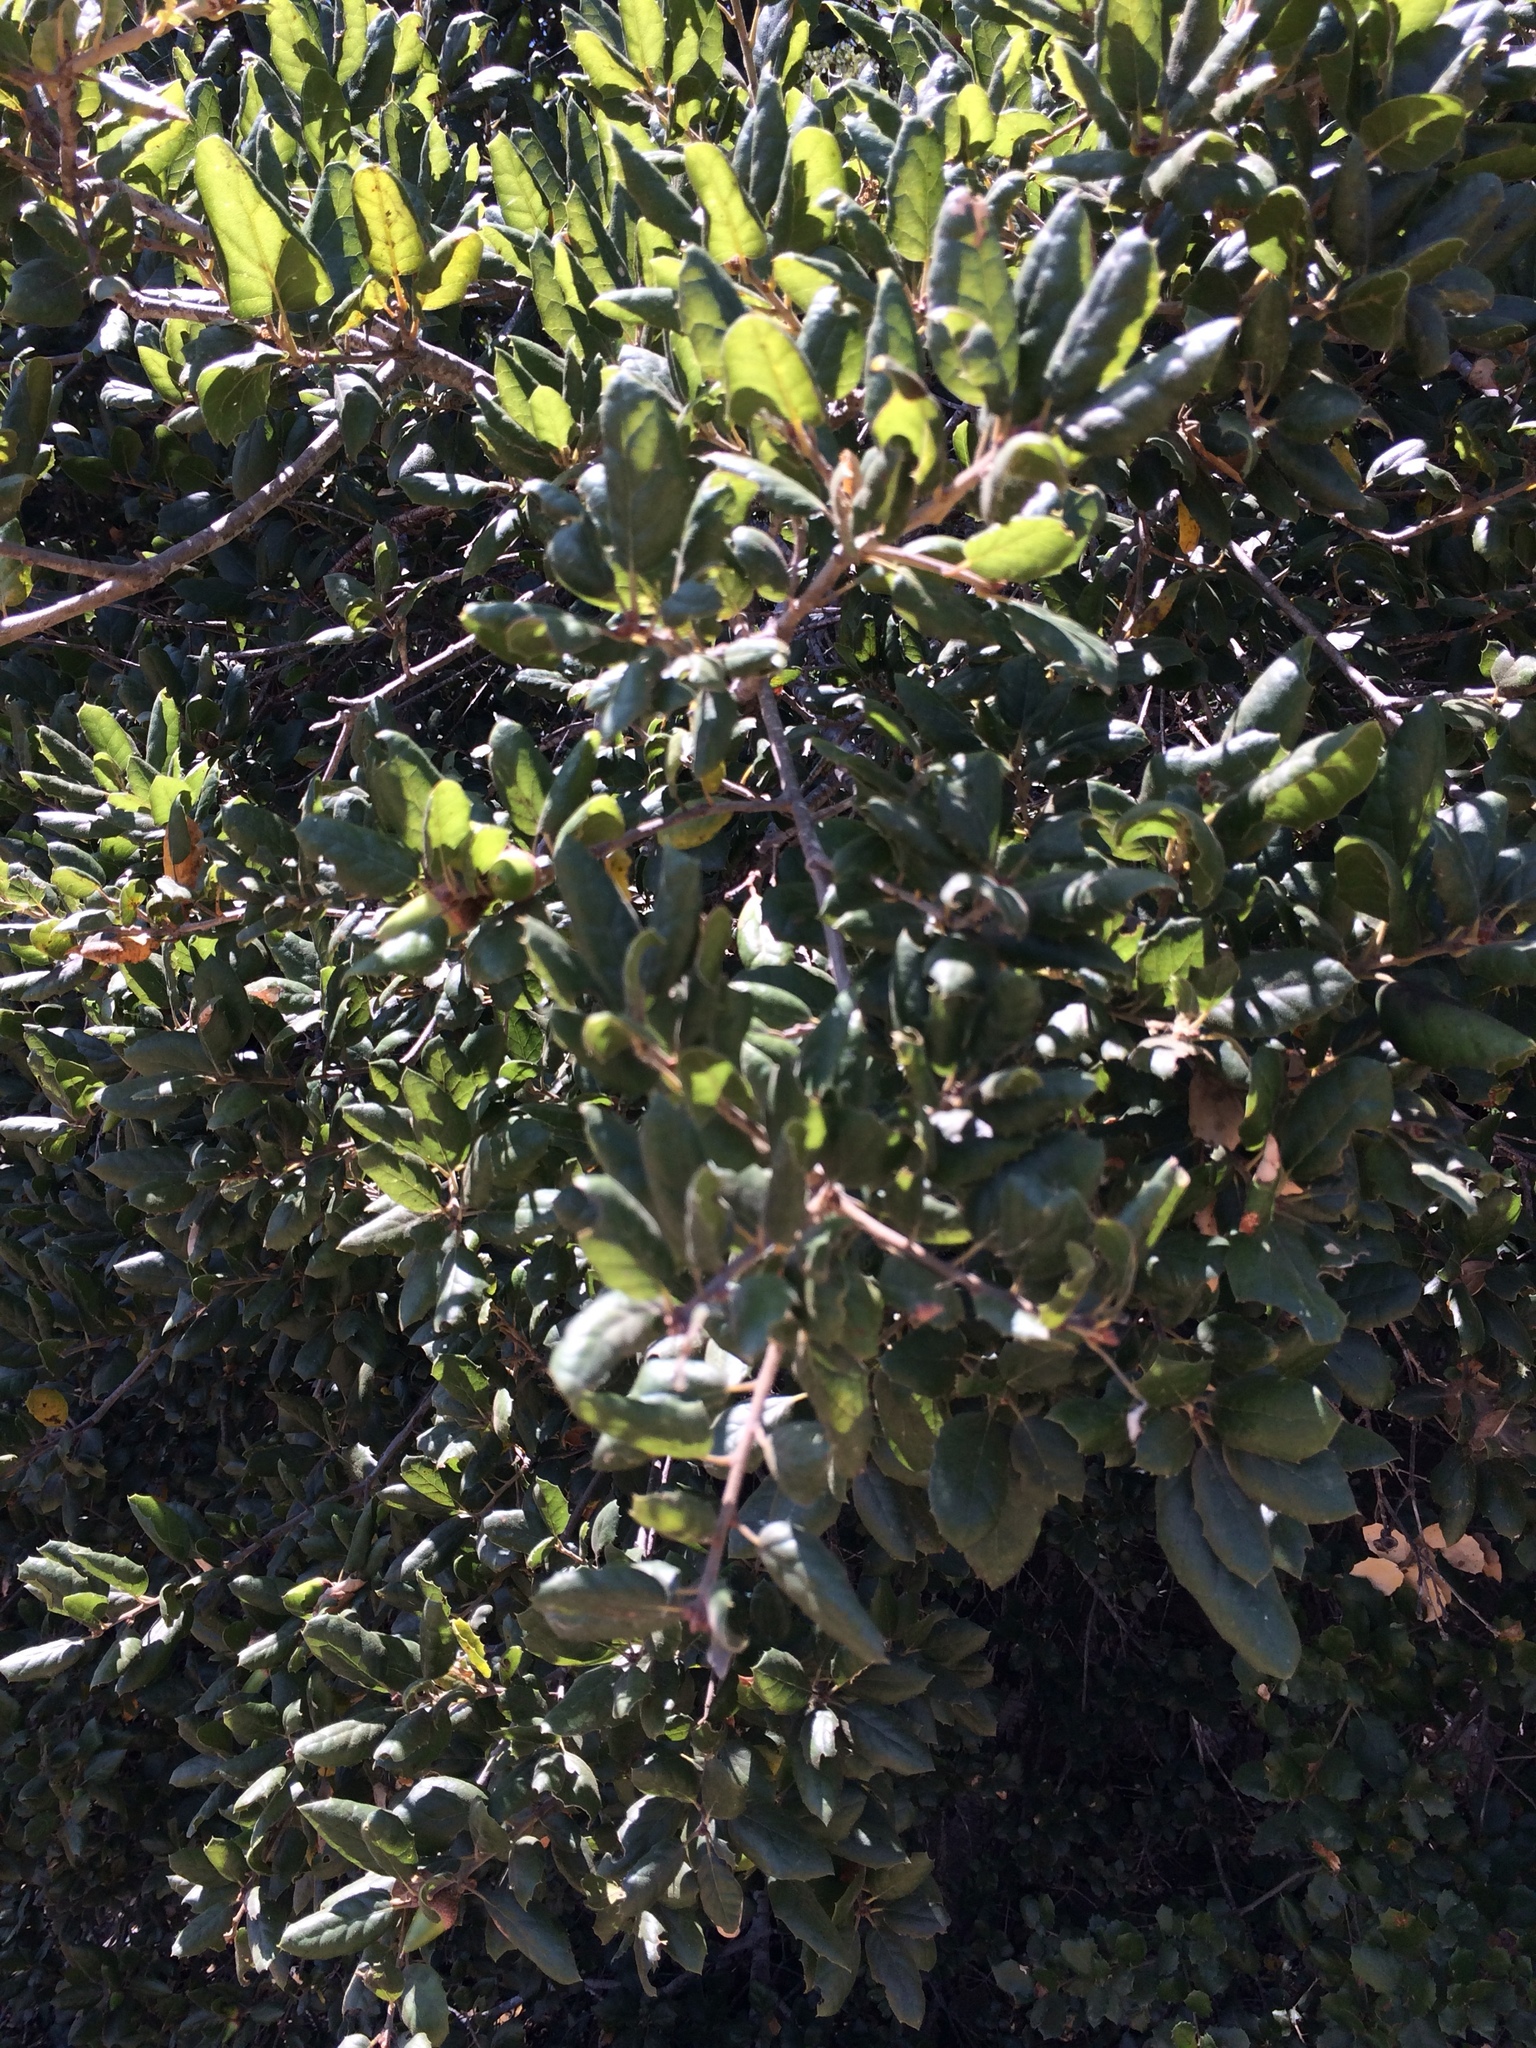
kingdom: Plantae
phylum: Tracheophyta
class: Magnoliopsida
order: Fagales
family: Fagaceae
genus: Quercus
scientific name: Quercus agrifolia
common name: California live oak
